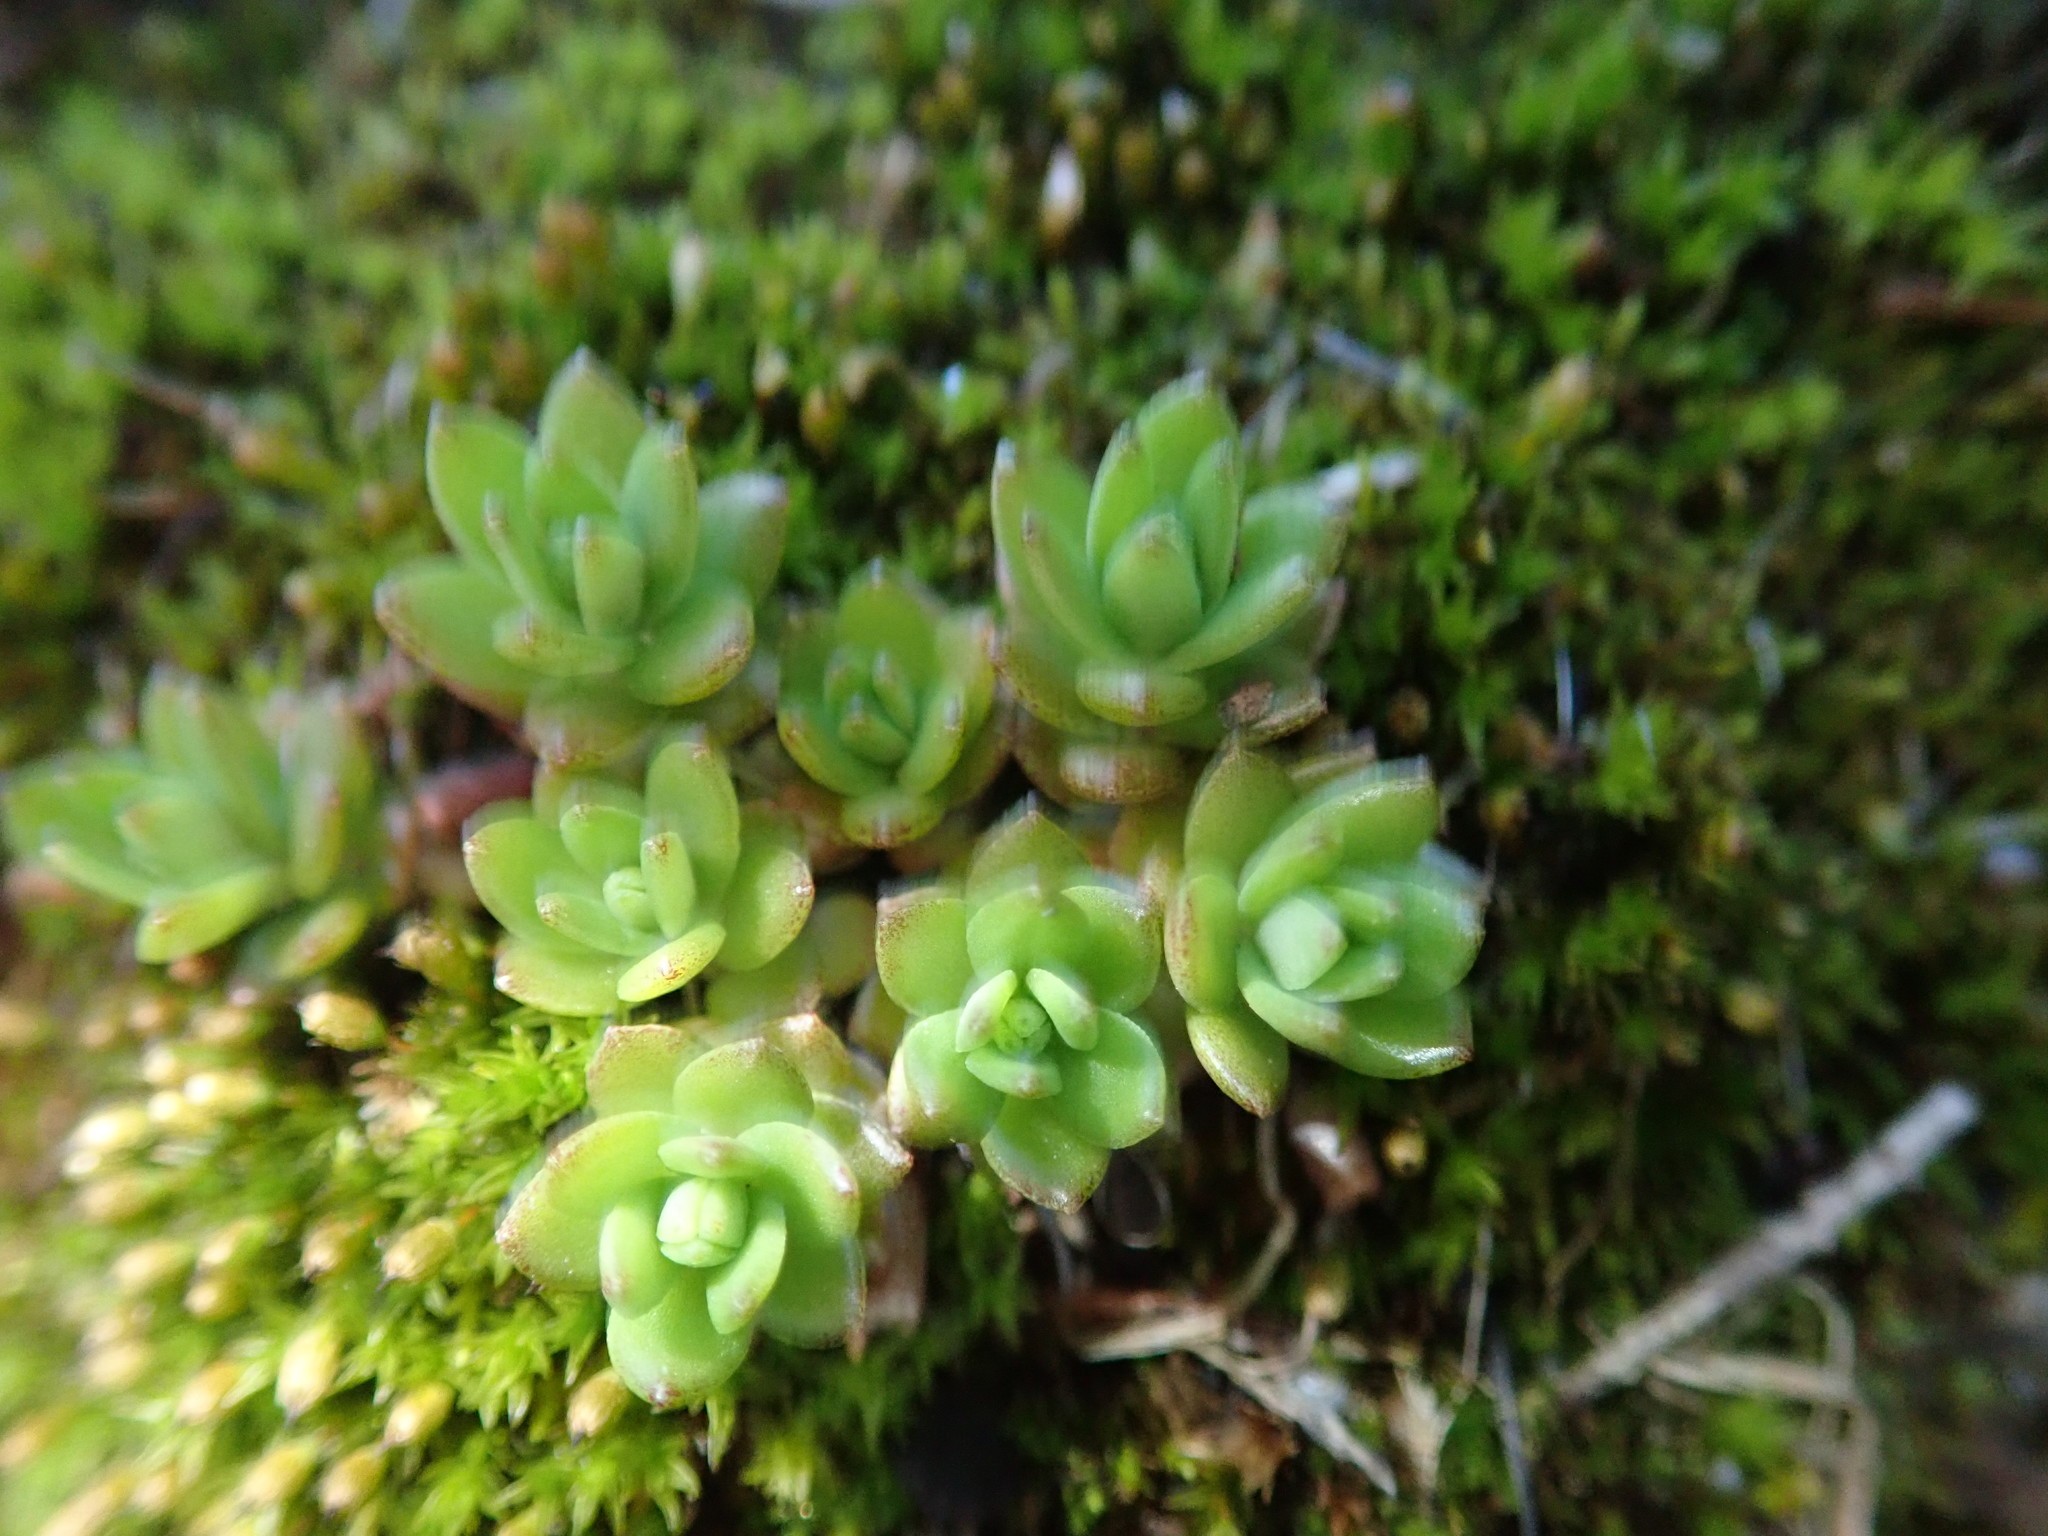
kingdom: Plantae
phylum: Tracheophyta
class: Magnoliopsida
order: Saxifragales
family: Crassulaceae
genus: Sedum
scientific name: Sedum sarmentosum
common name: Stringy stonecrop
